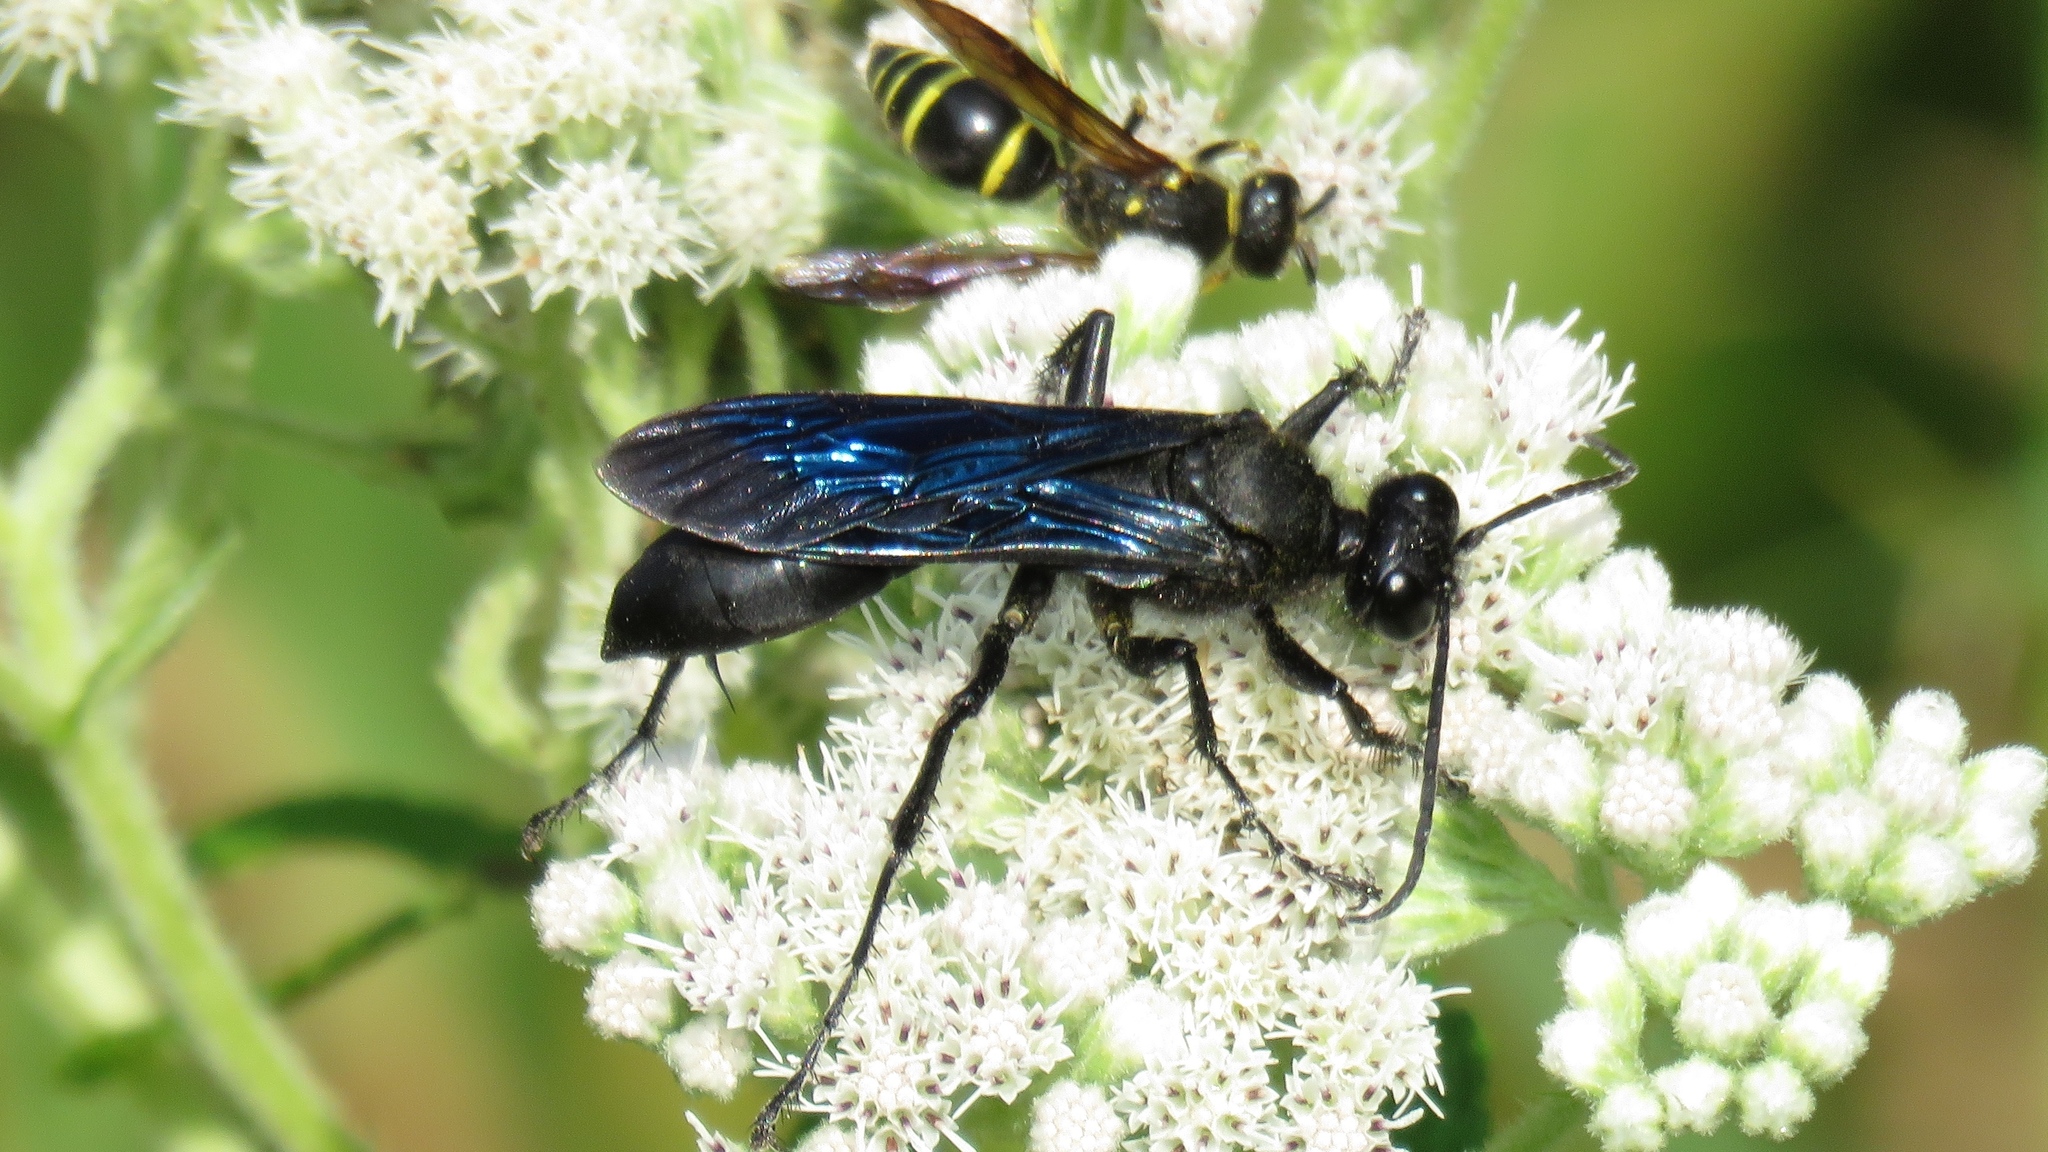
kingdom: Animalia
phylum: Arthropoda
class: Insecta
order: Hymenoptera
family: Sphecidae
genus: Sphex
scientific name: Sphex pensylvanicus
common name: Great black digger wasp
